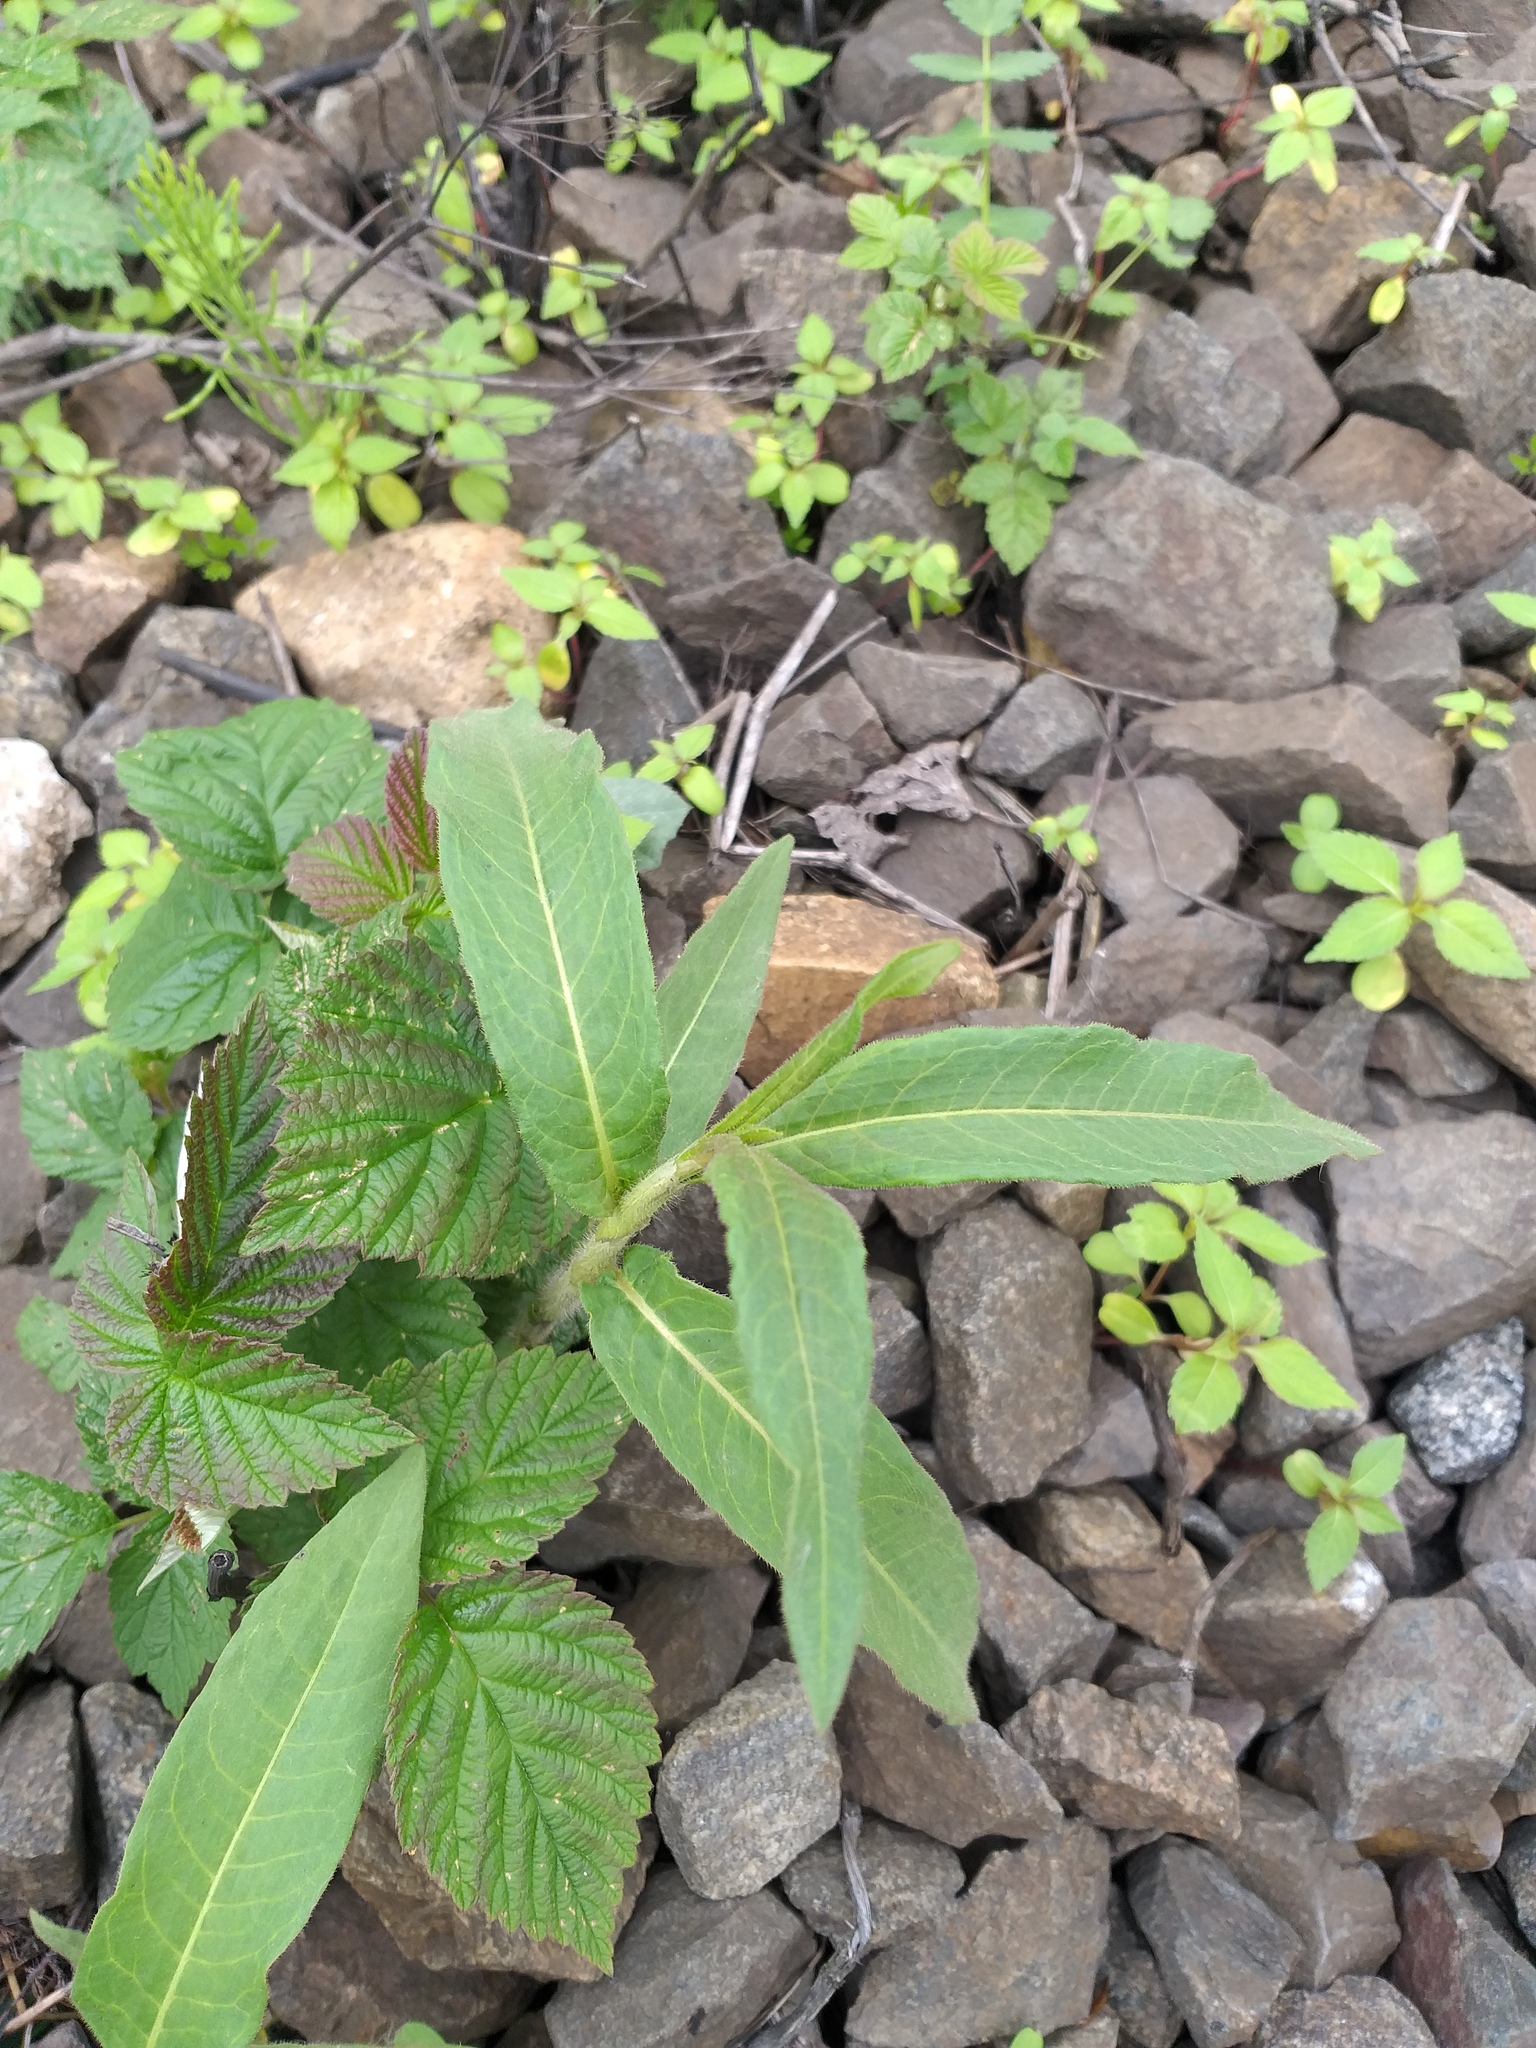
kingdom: Plantae
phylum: Tracheophyta
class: Magnoliopsida
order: Caryophyllales
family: Polygonaceae
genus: Persicaria
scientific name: Persicaria amphibia
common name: Amphibious bistort
